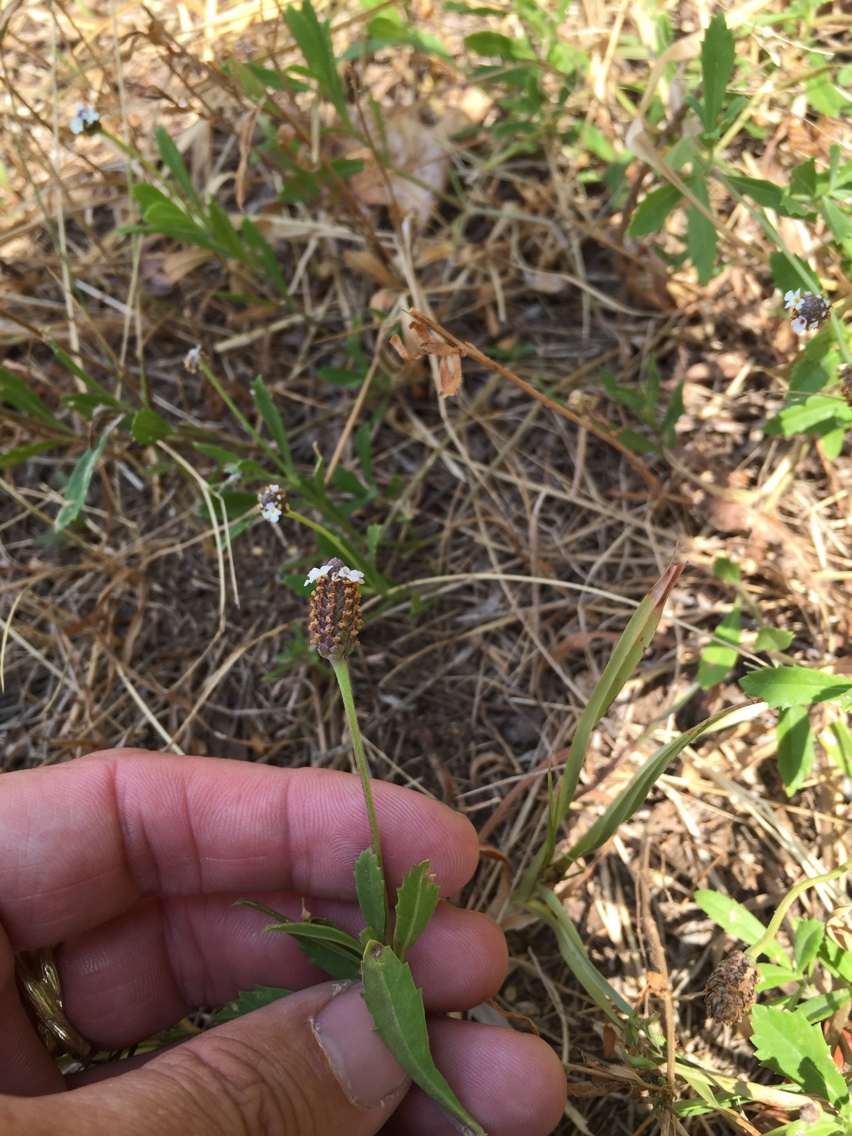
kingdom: Plantae
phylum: Tracheophyta
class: Magnoliopsida
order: Lamiales
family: Verbenaceae
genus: Phyla
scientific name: Phyla nodiflora
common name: Frogfruit
